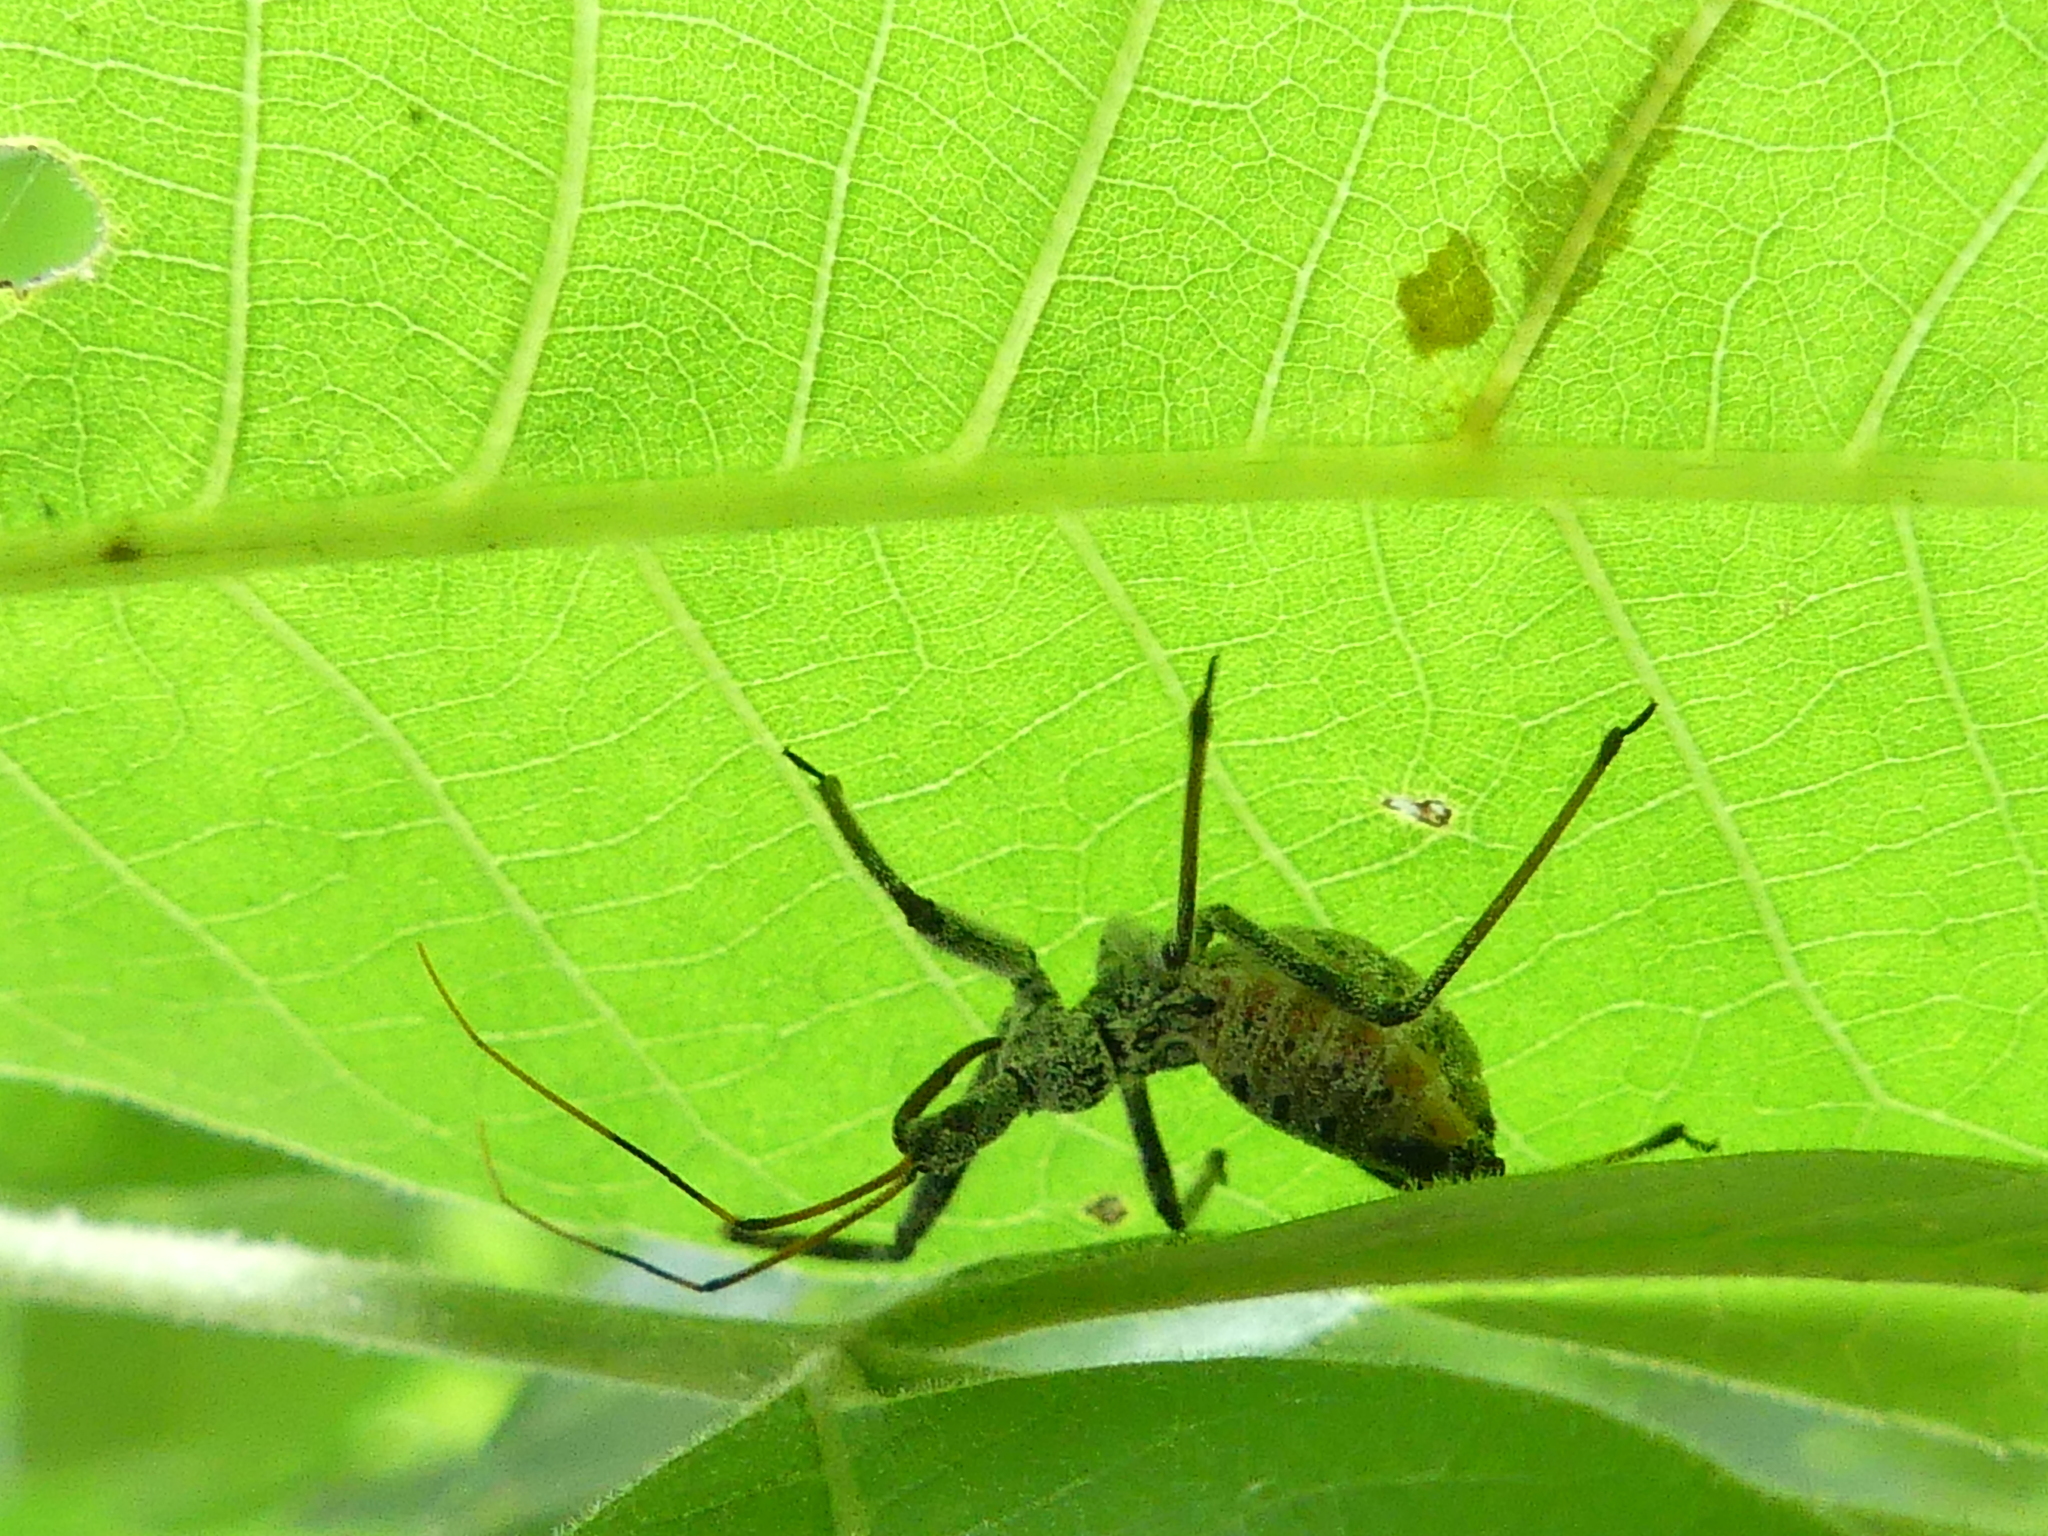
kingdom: Animalia
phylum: Arthropoda
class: Insecta
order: Hemiptera
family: Reduviidae
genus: Arilus
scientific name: Arilus cristatus
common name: North american wheel bug
